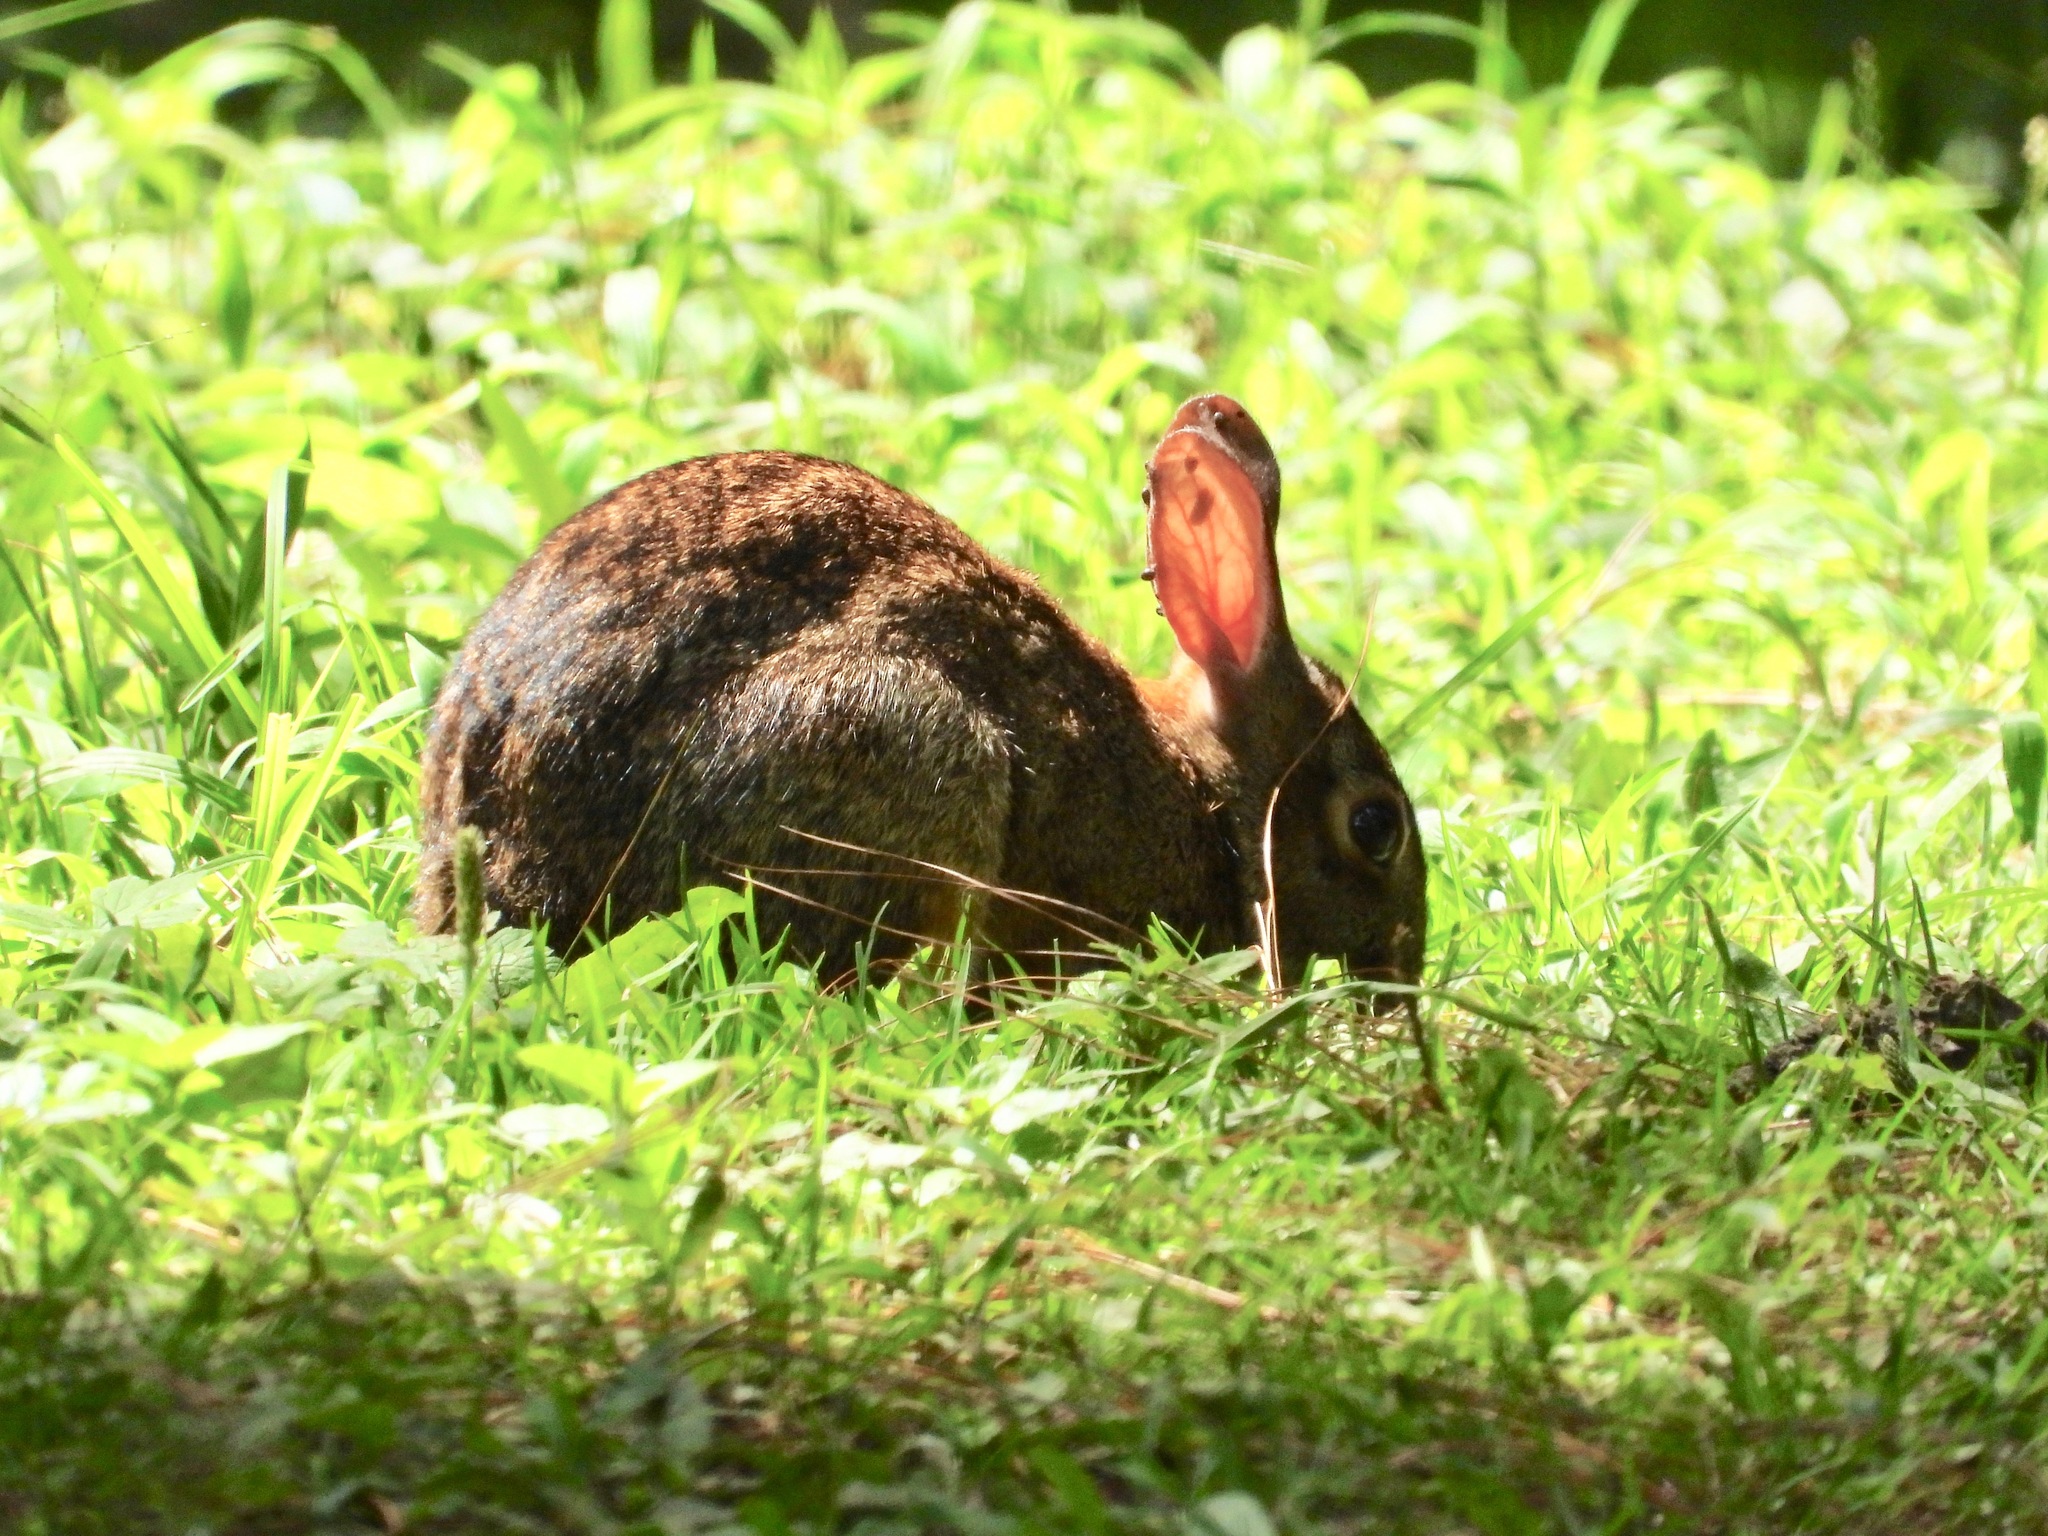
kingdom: Animalia
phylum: Chordata
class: Mammalia
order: Lagomorpha
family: Leporidae
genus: Sylvilagus
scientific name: Sylvilagus floridanus
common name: Eastern cottontail
